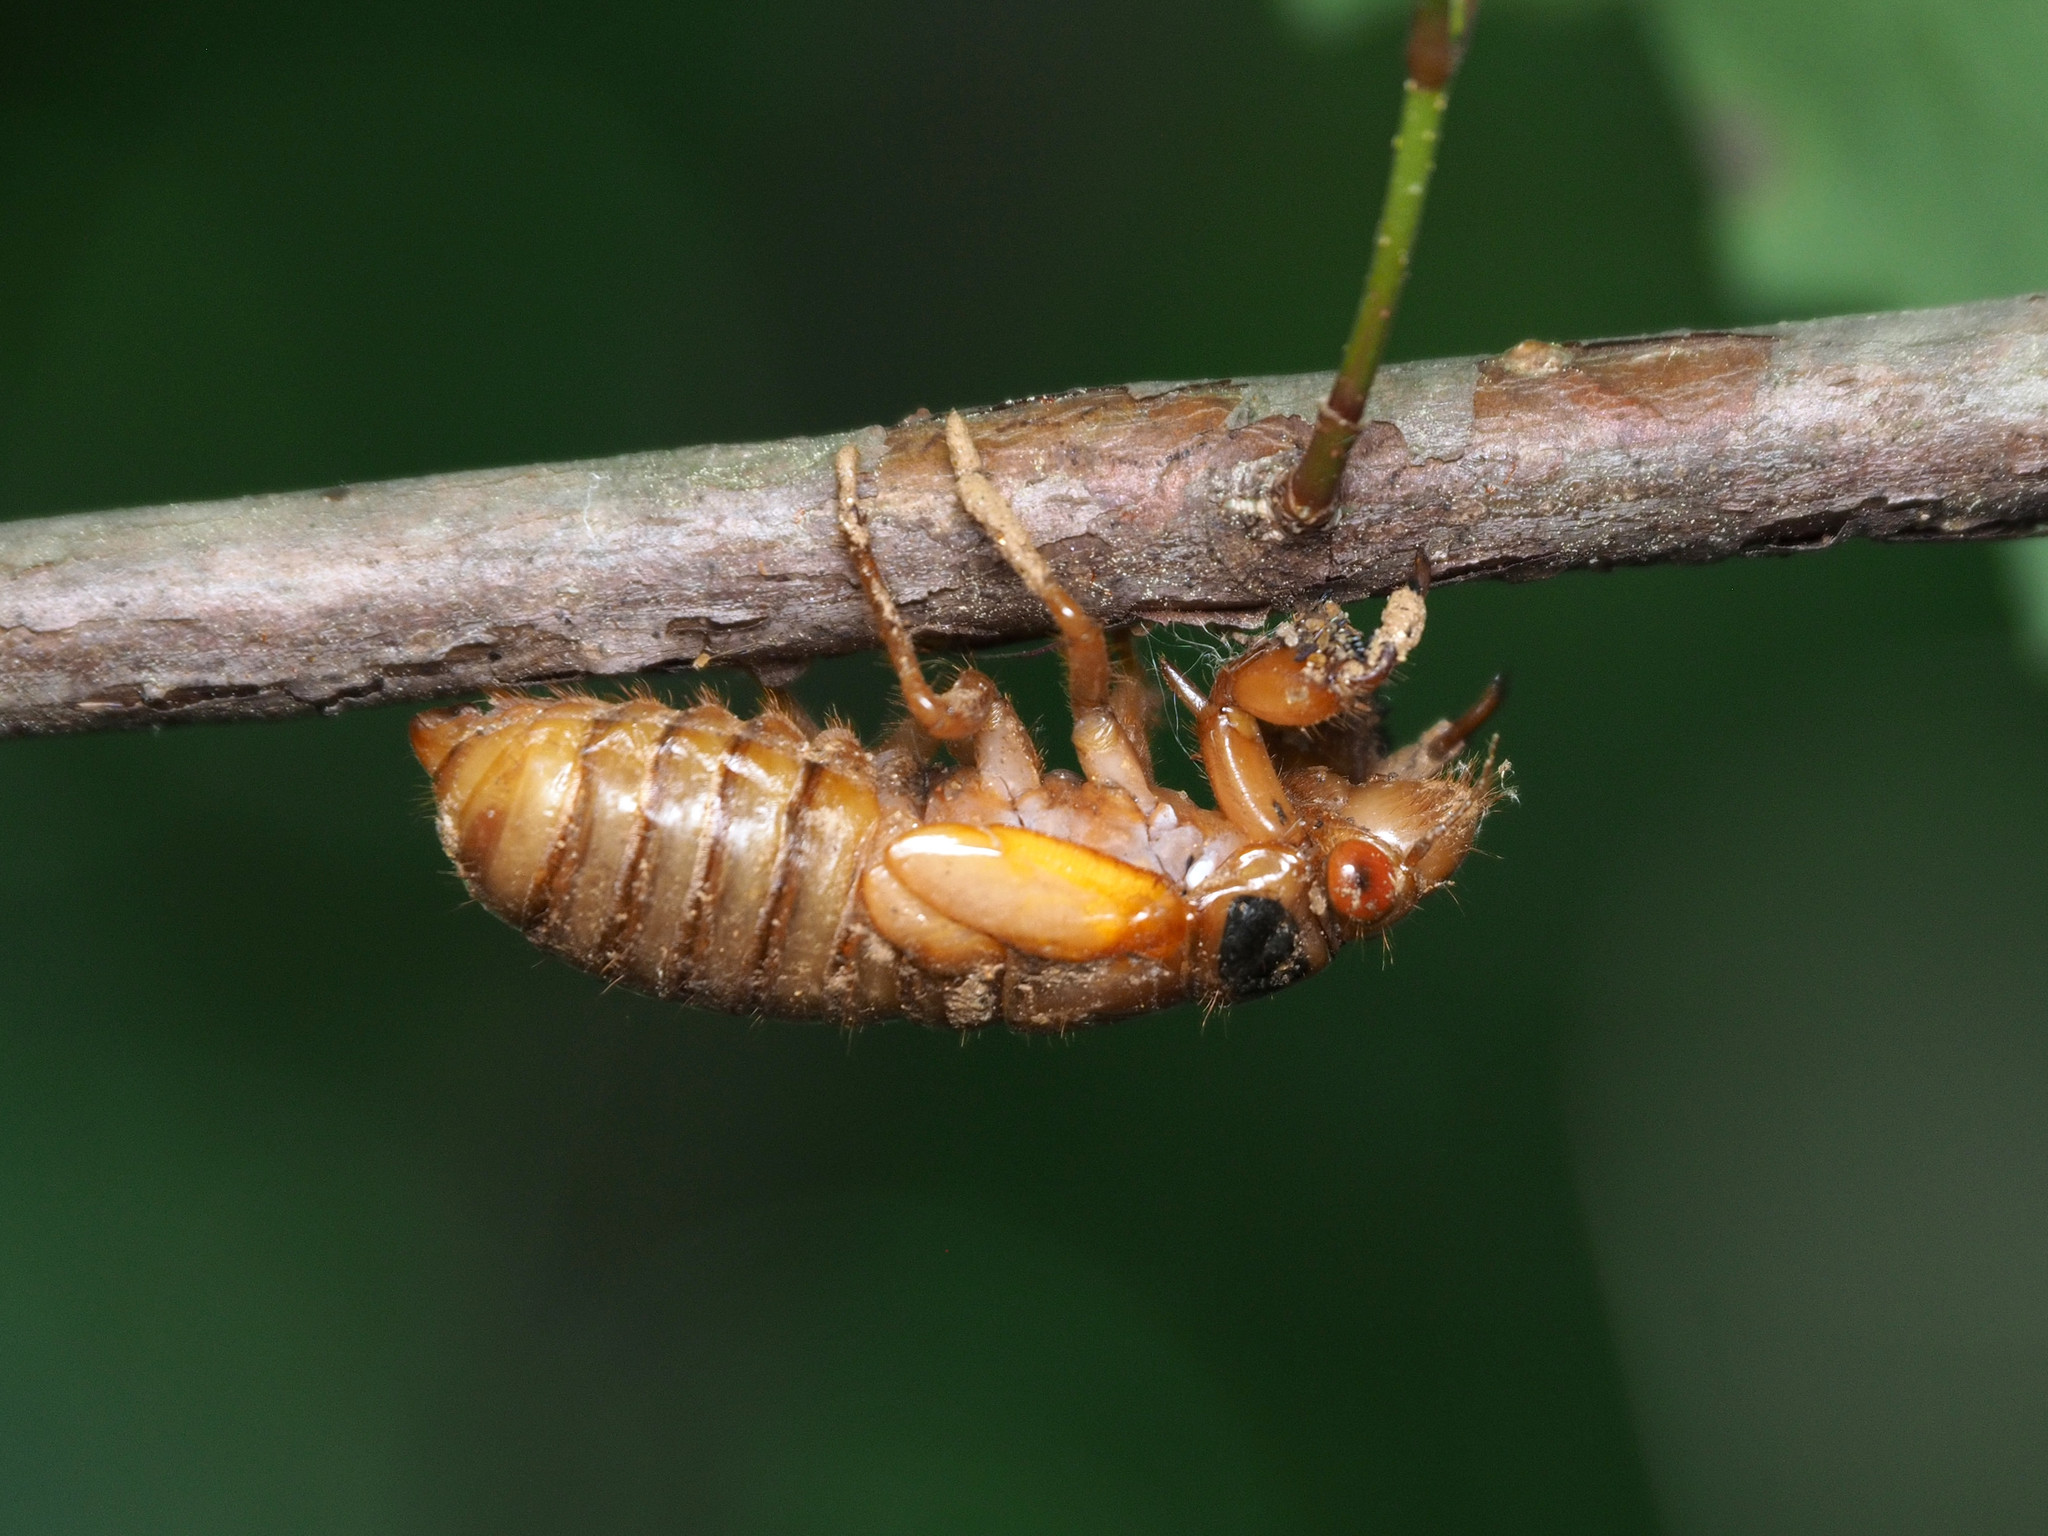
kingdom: Animalia
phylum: Arthropoda
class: Insecta
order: Hemiptera
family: Cicadidae
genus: Magicicada
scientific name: Magicicada
